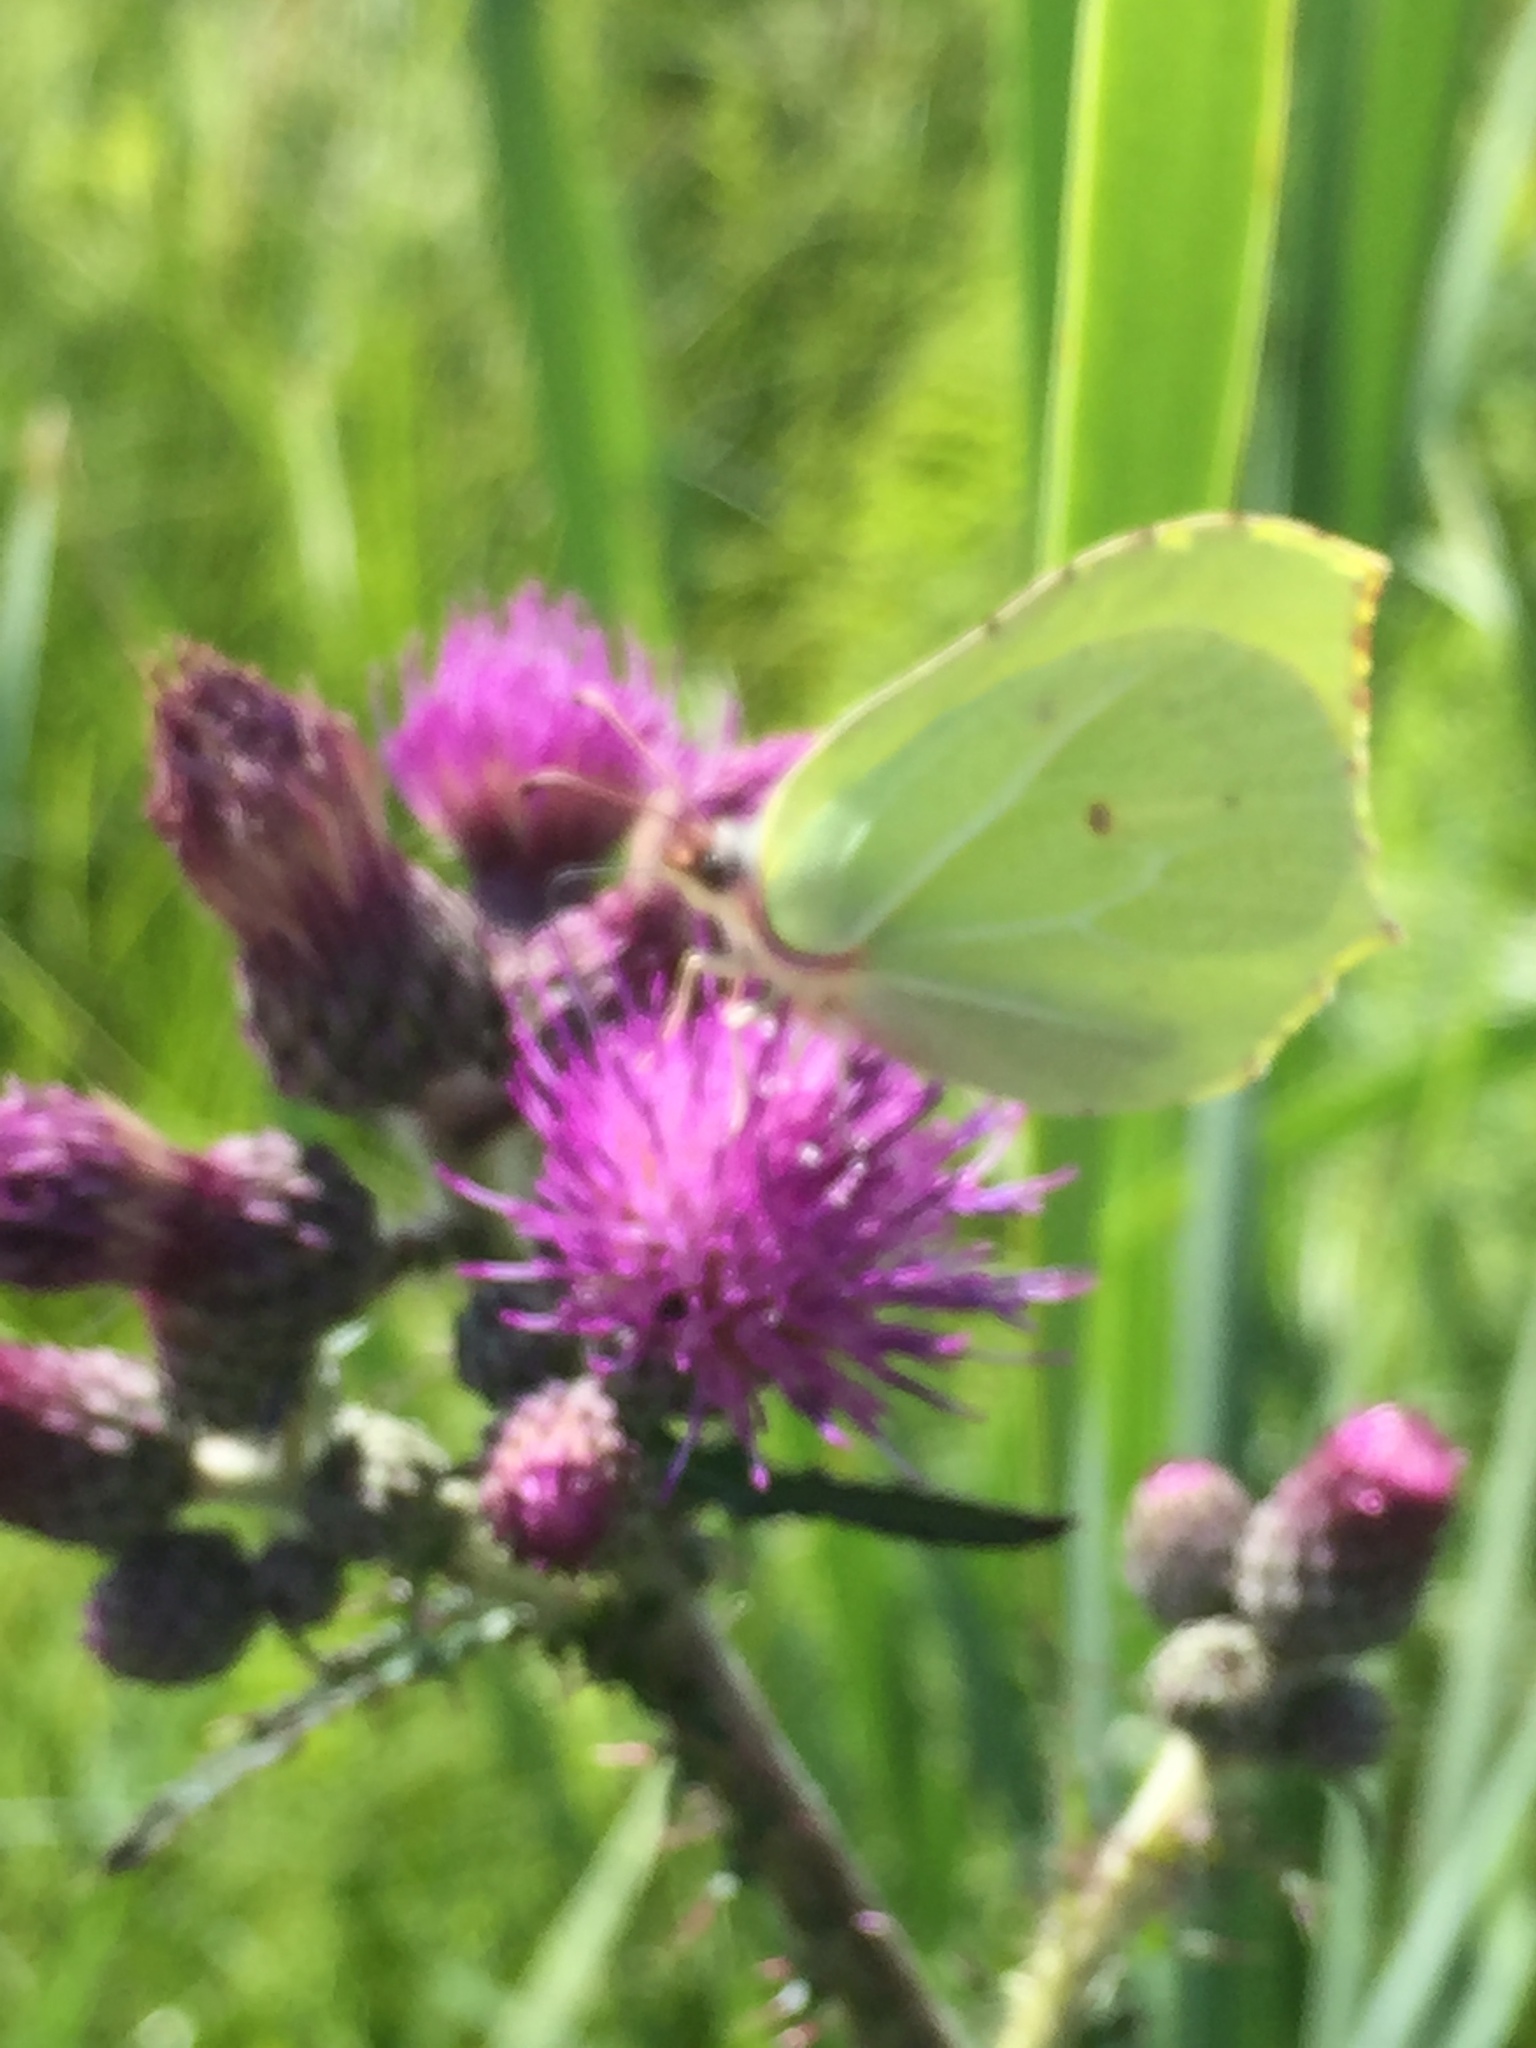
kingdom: Animalia
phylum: Arthropoda
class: Insecta
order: Lepidoptera
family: Pieridae
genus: Gonepteryx
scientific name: Gonepteryx rhamni
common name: Brimstone
